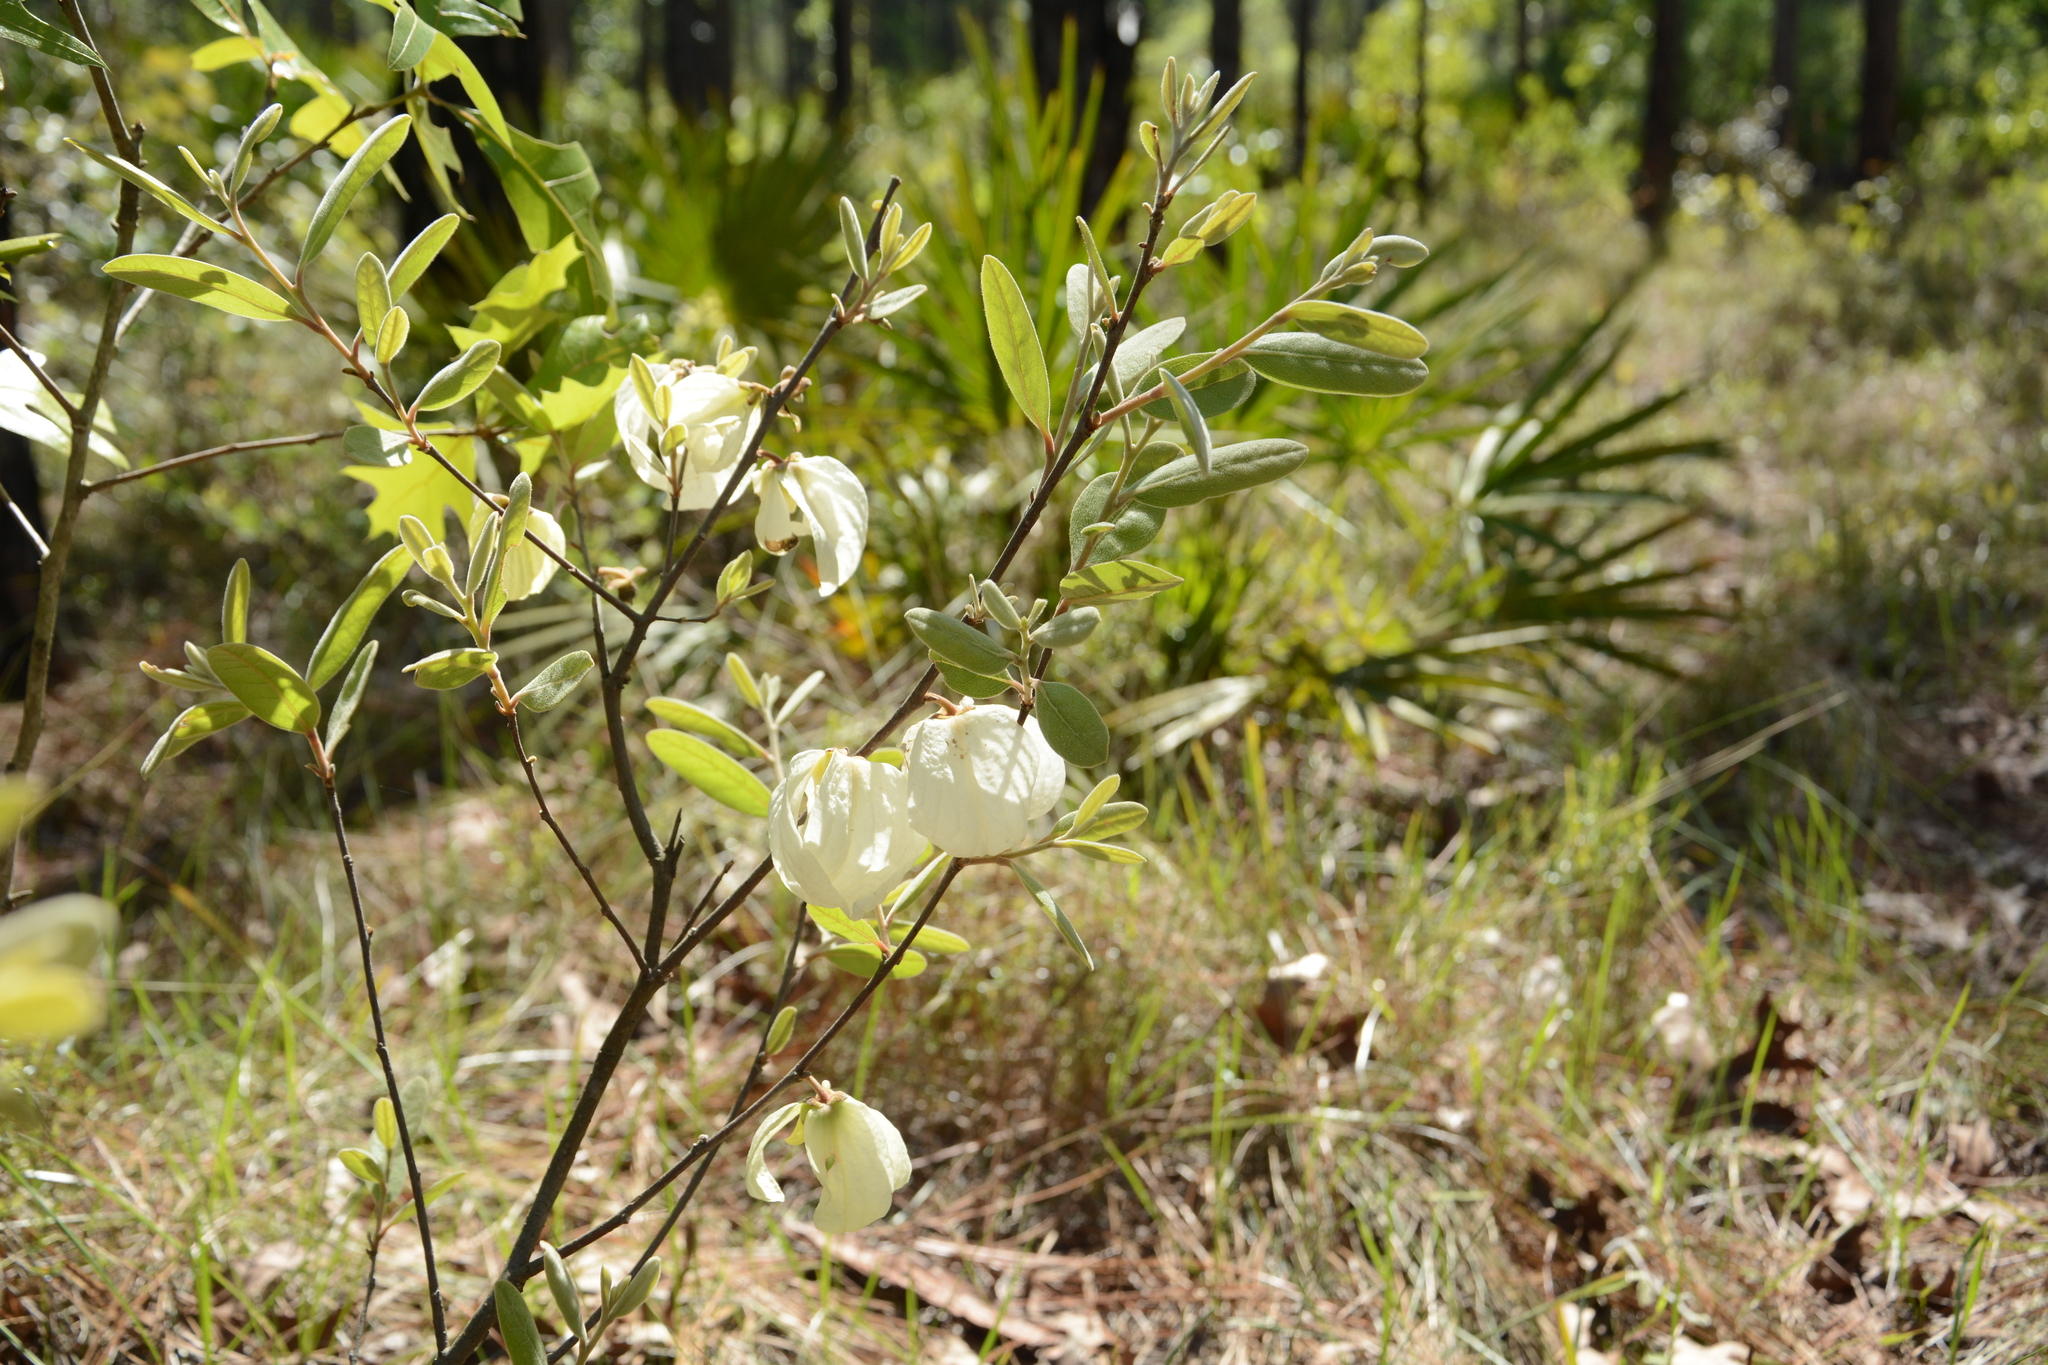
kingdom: Plantae
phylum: Tracheophyta
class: Magnoliopsida
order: Magnoliales
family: Annonaceae
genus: Asimina
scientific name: Asimina speciosa
